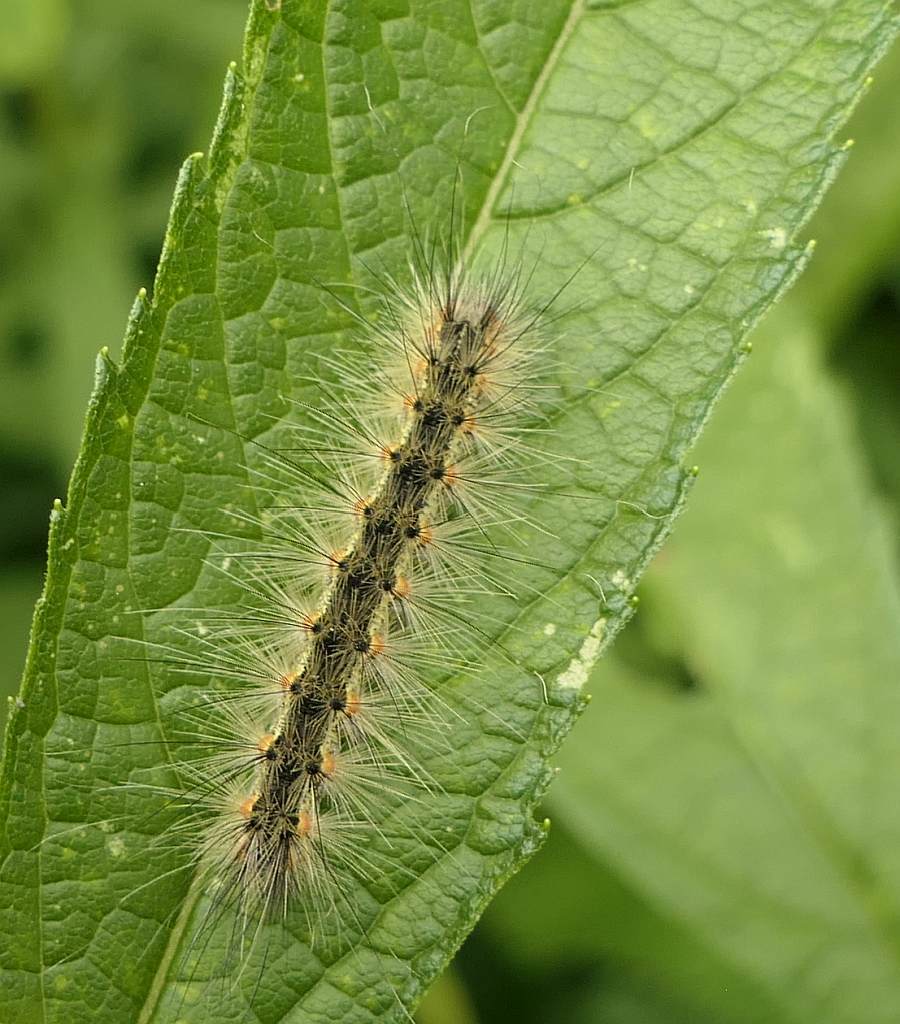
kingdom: Animalia
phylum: Arthropoda
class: Insecta
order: Lepidoptera
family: Erebidae
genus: Hyphantria
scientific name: Hyphantria cunea
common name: American white moth
